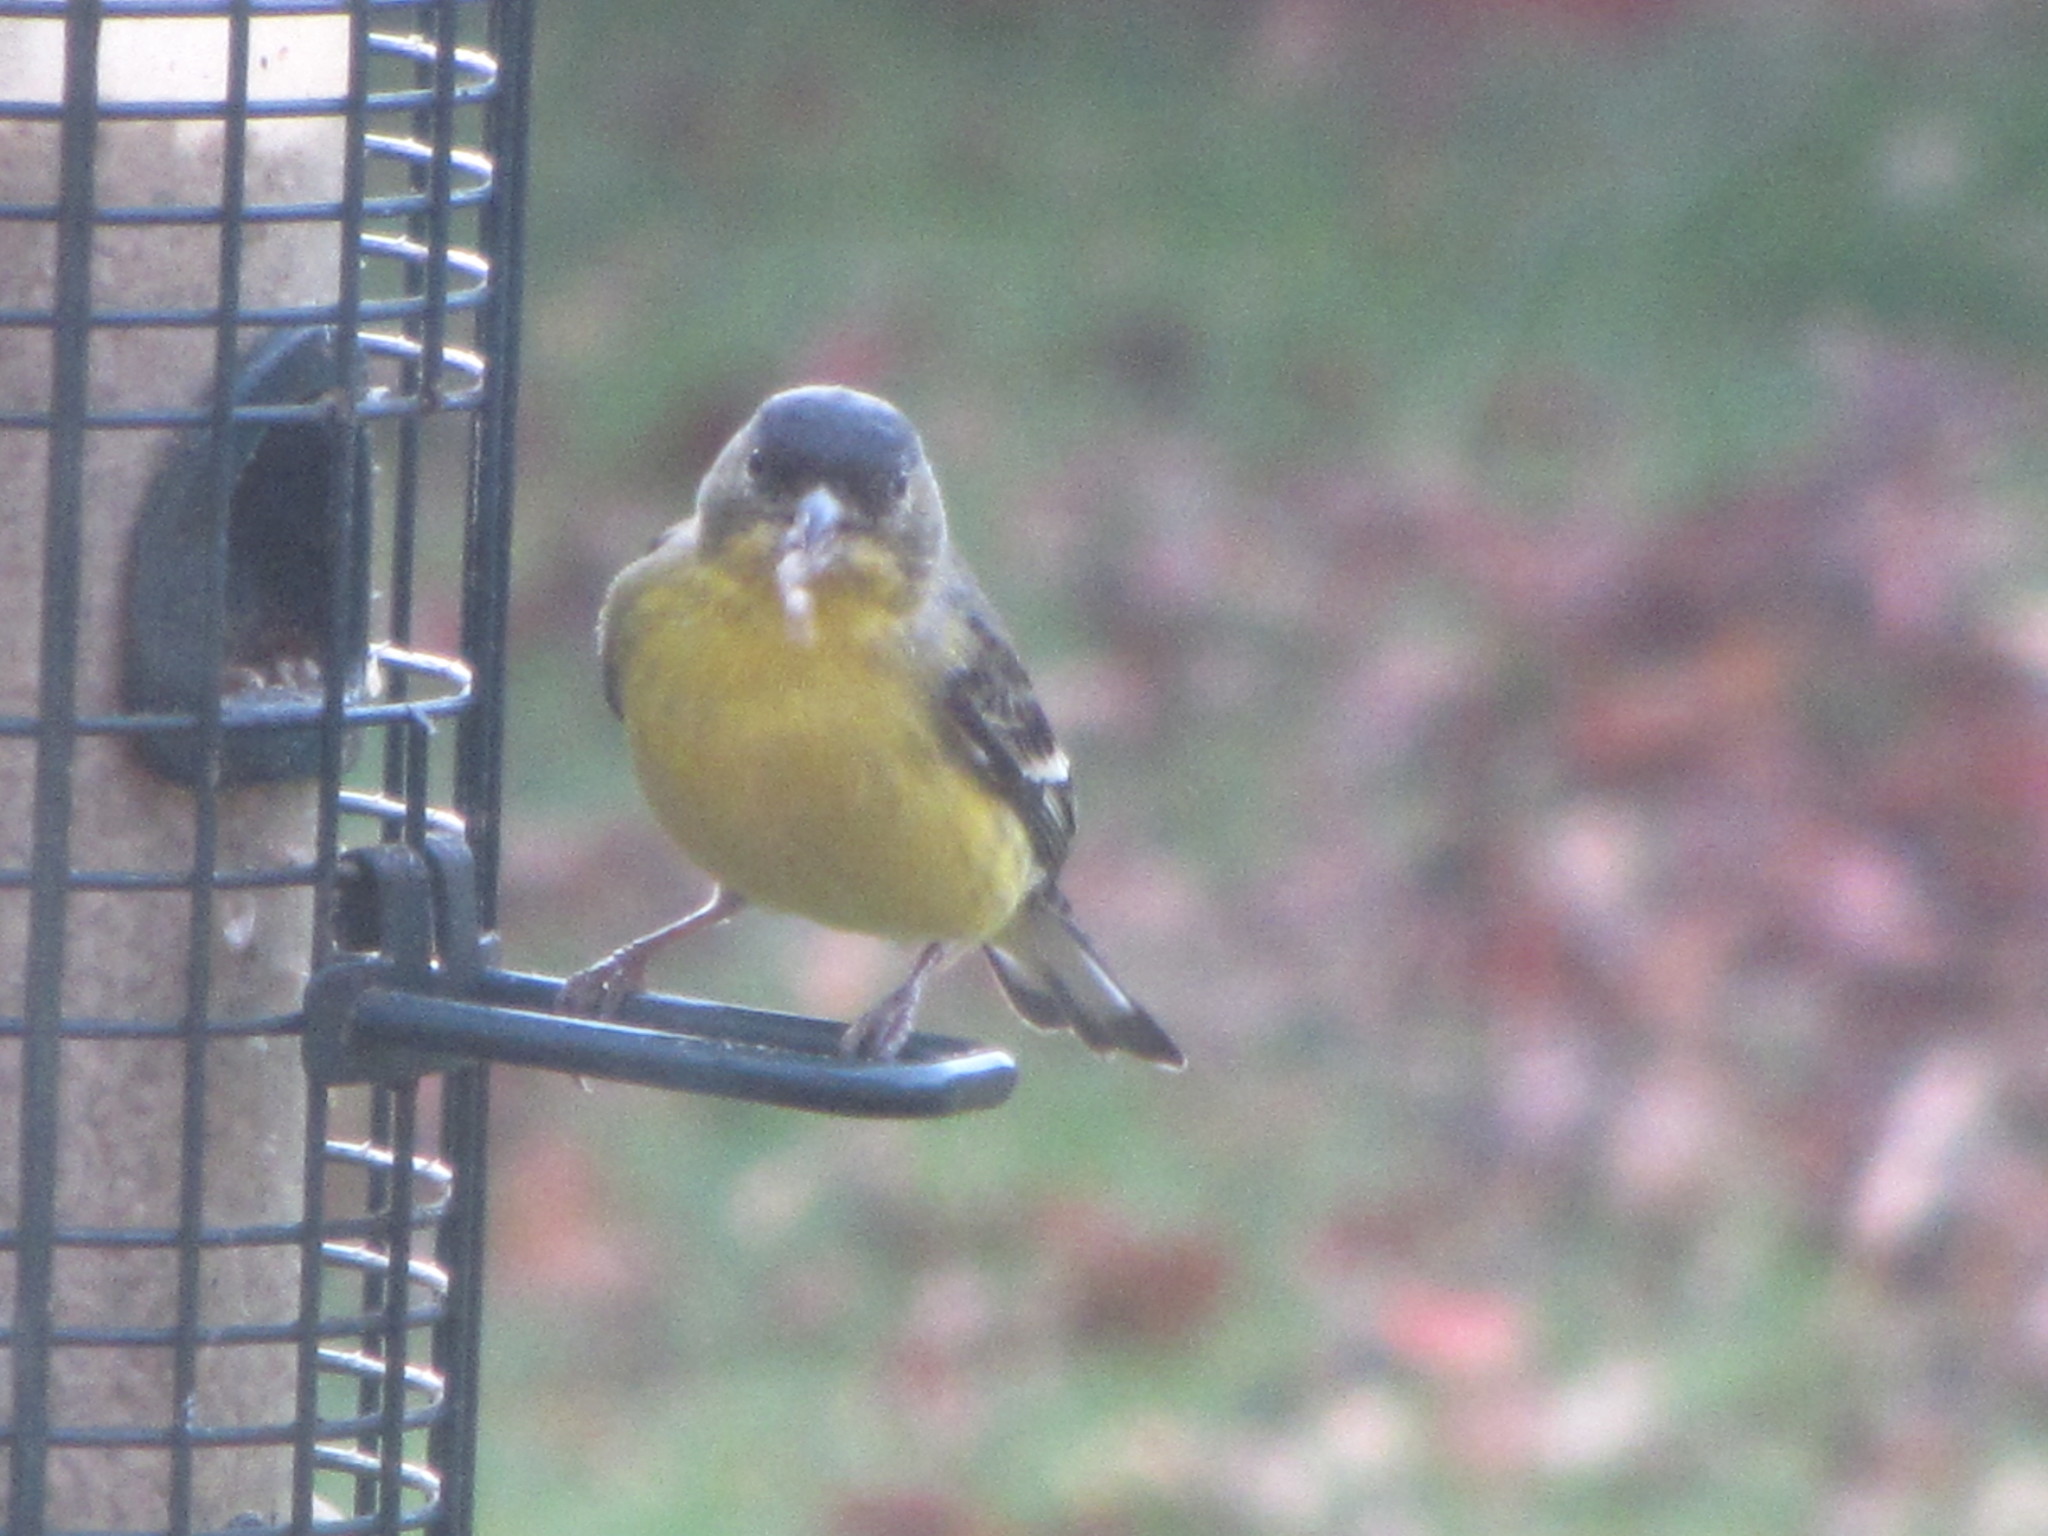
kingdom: Animalia
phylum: Chordata
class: Aves
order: Passeriformes
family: Fringillidae
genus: Spinus
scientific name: Spinus psaltria
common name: Lesser goldfinch
